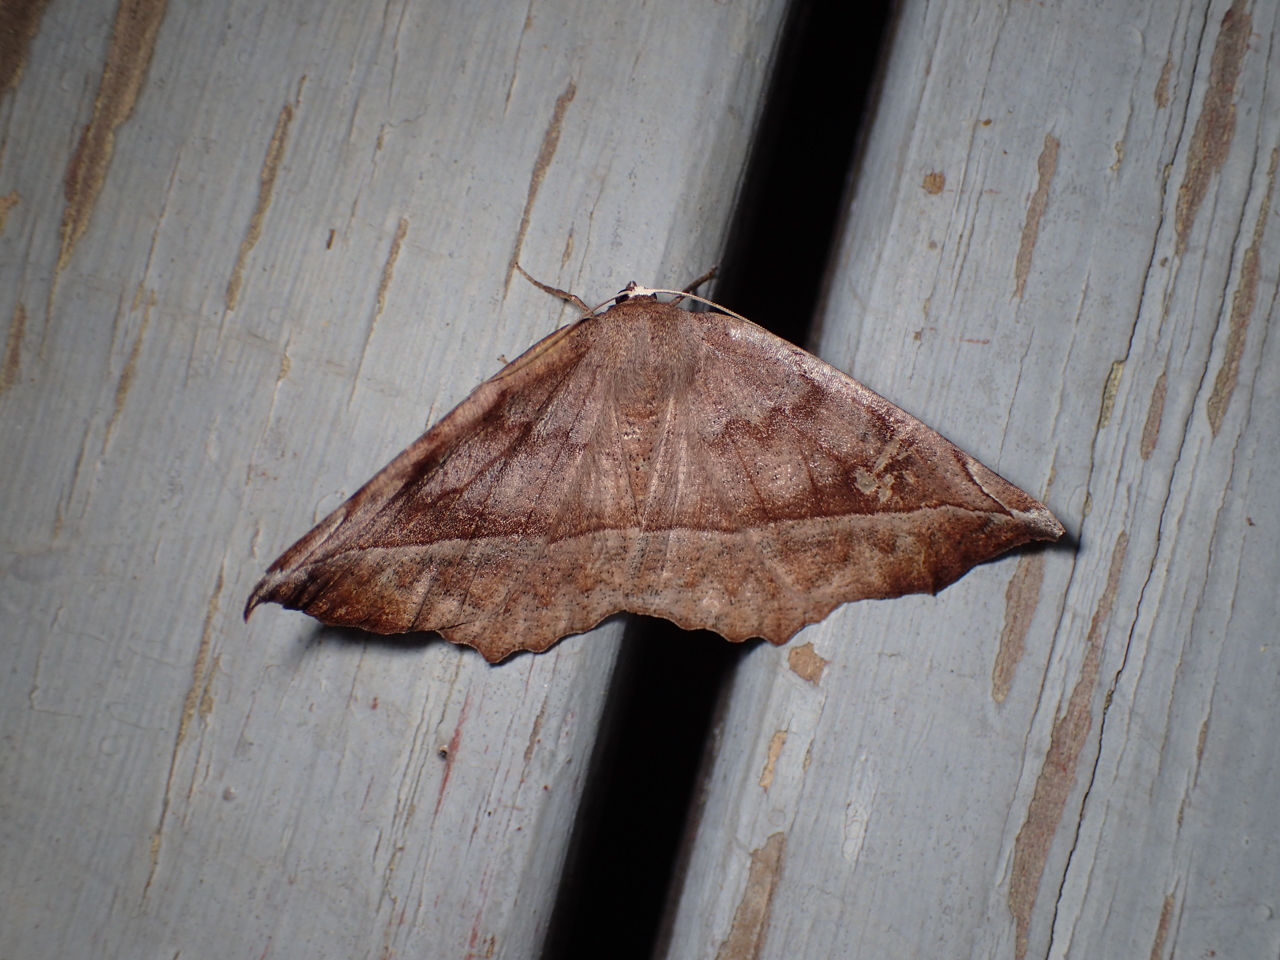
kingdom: Animalia
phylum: Arthropoda
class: Insecta
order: Lepidoptera
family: Geometridae
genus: Eutrapela
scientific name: Eutrapela clemataria
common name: Curved-toothed geometer
